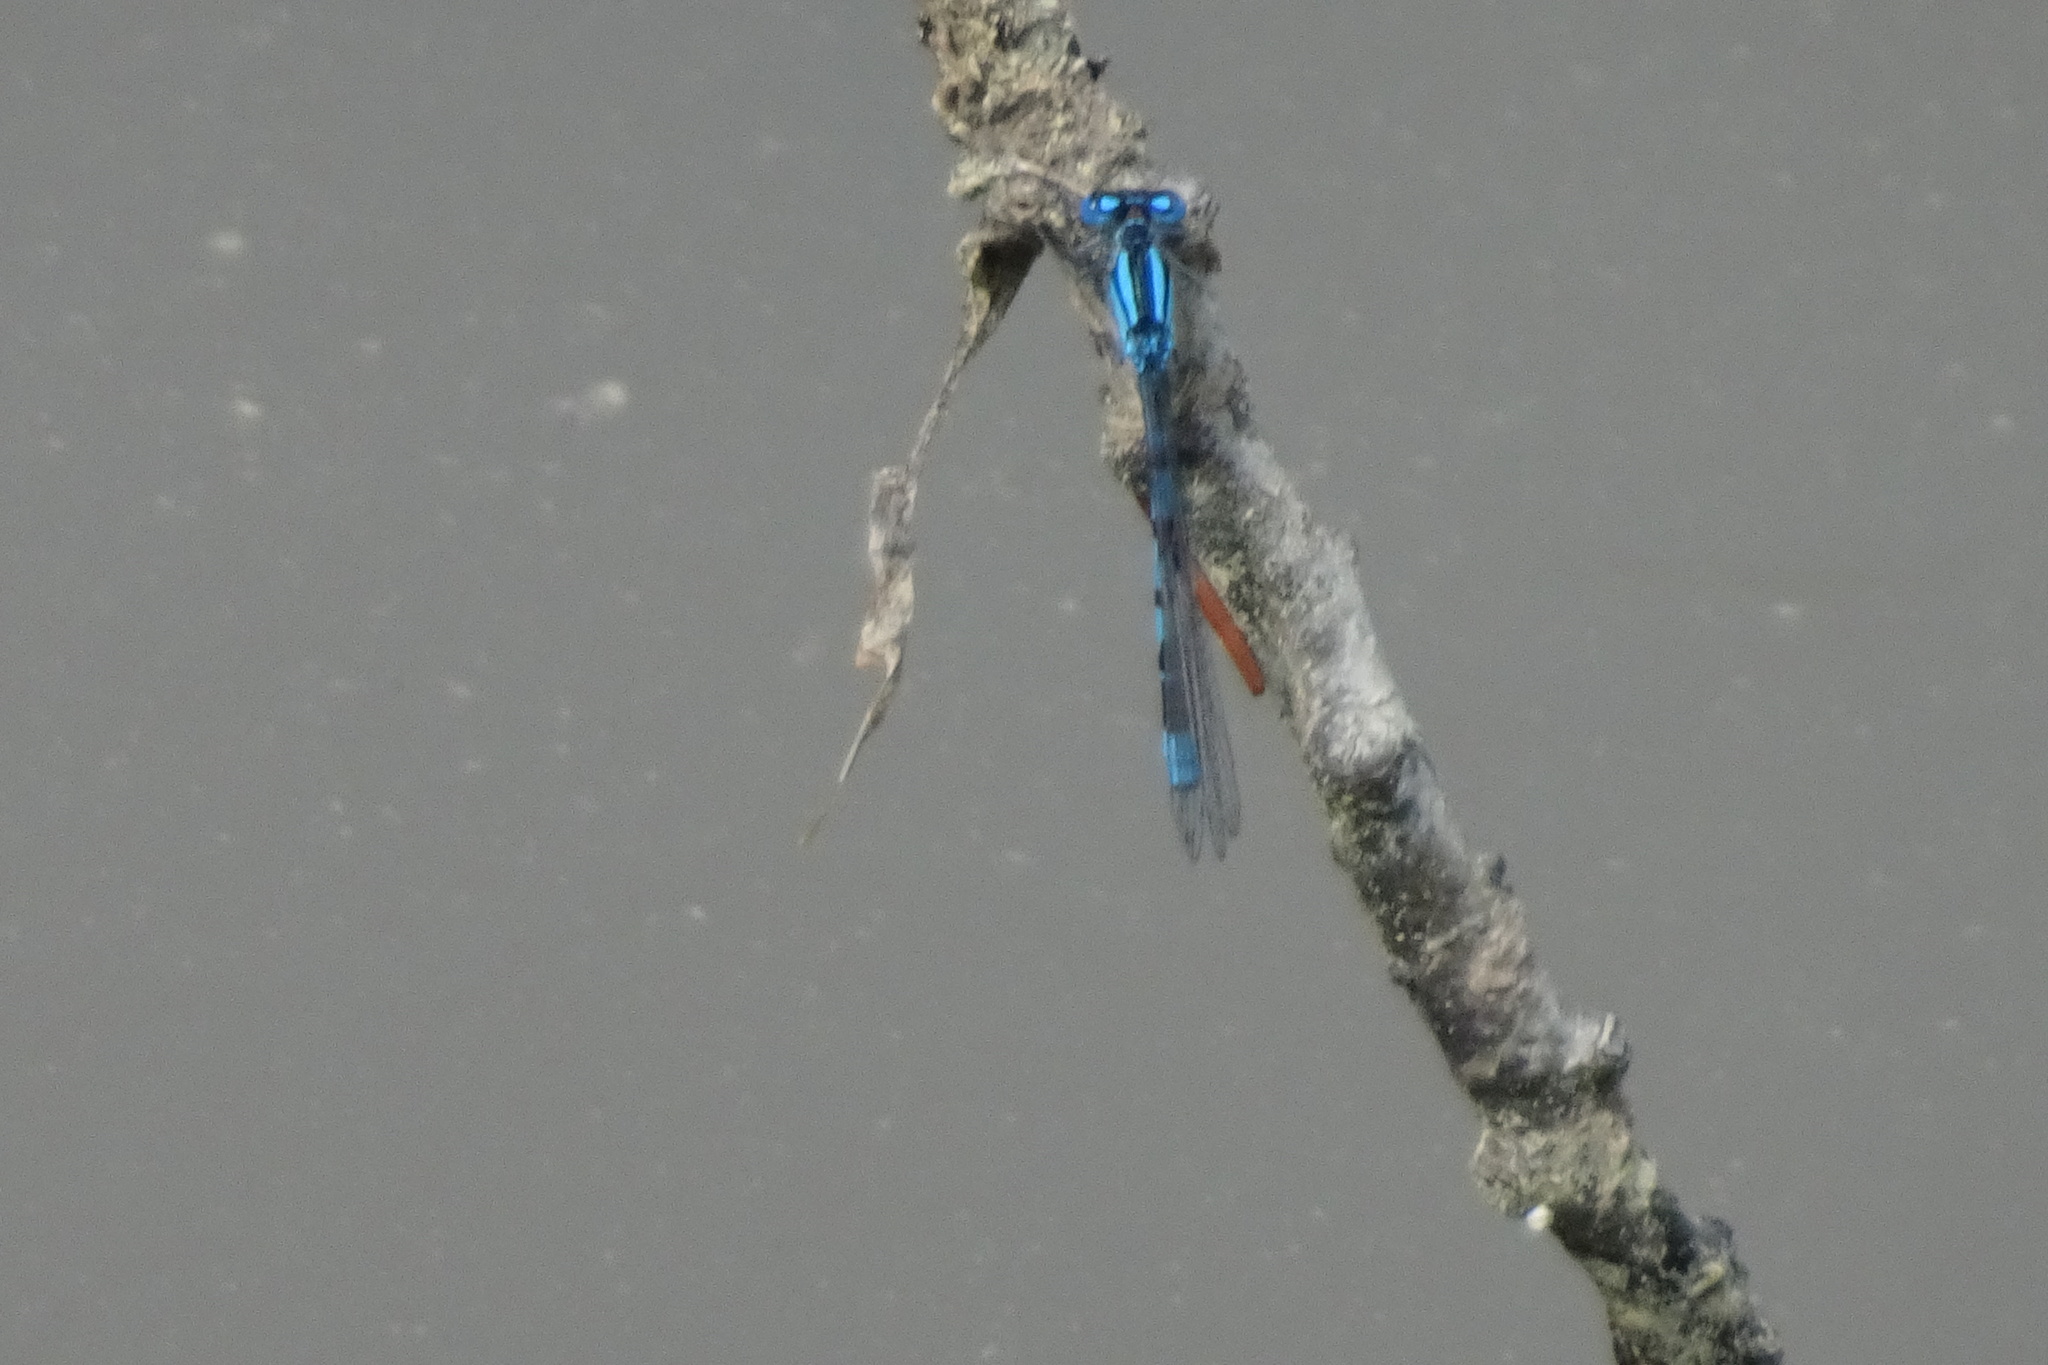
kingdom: Animalia
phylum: Arthropoda
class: Insecta
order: Odonata
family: Coenagrionidae
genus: Enallagma
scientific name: Enallagma cyathigerum
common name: Common blue damselfly
